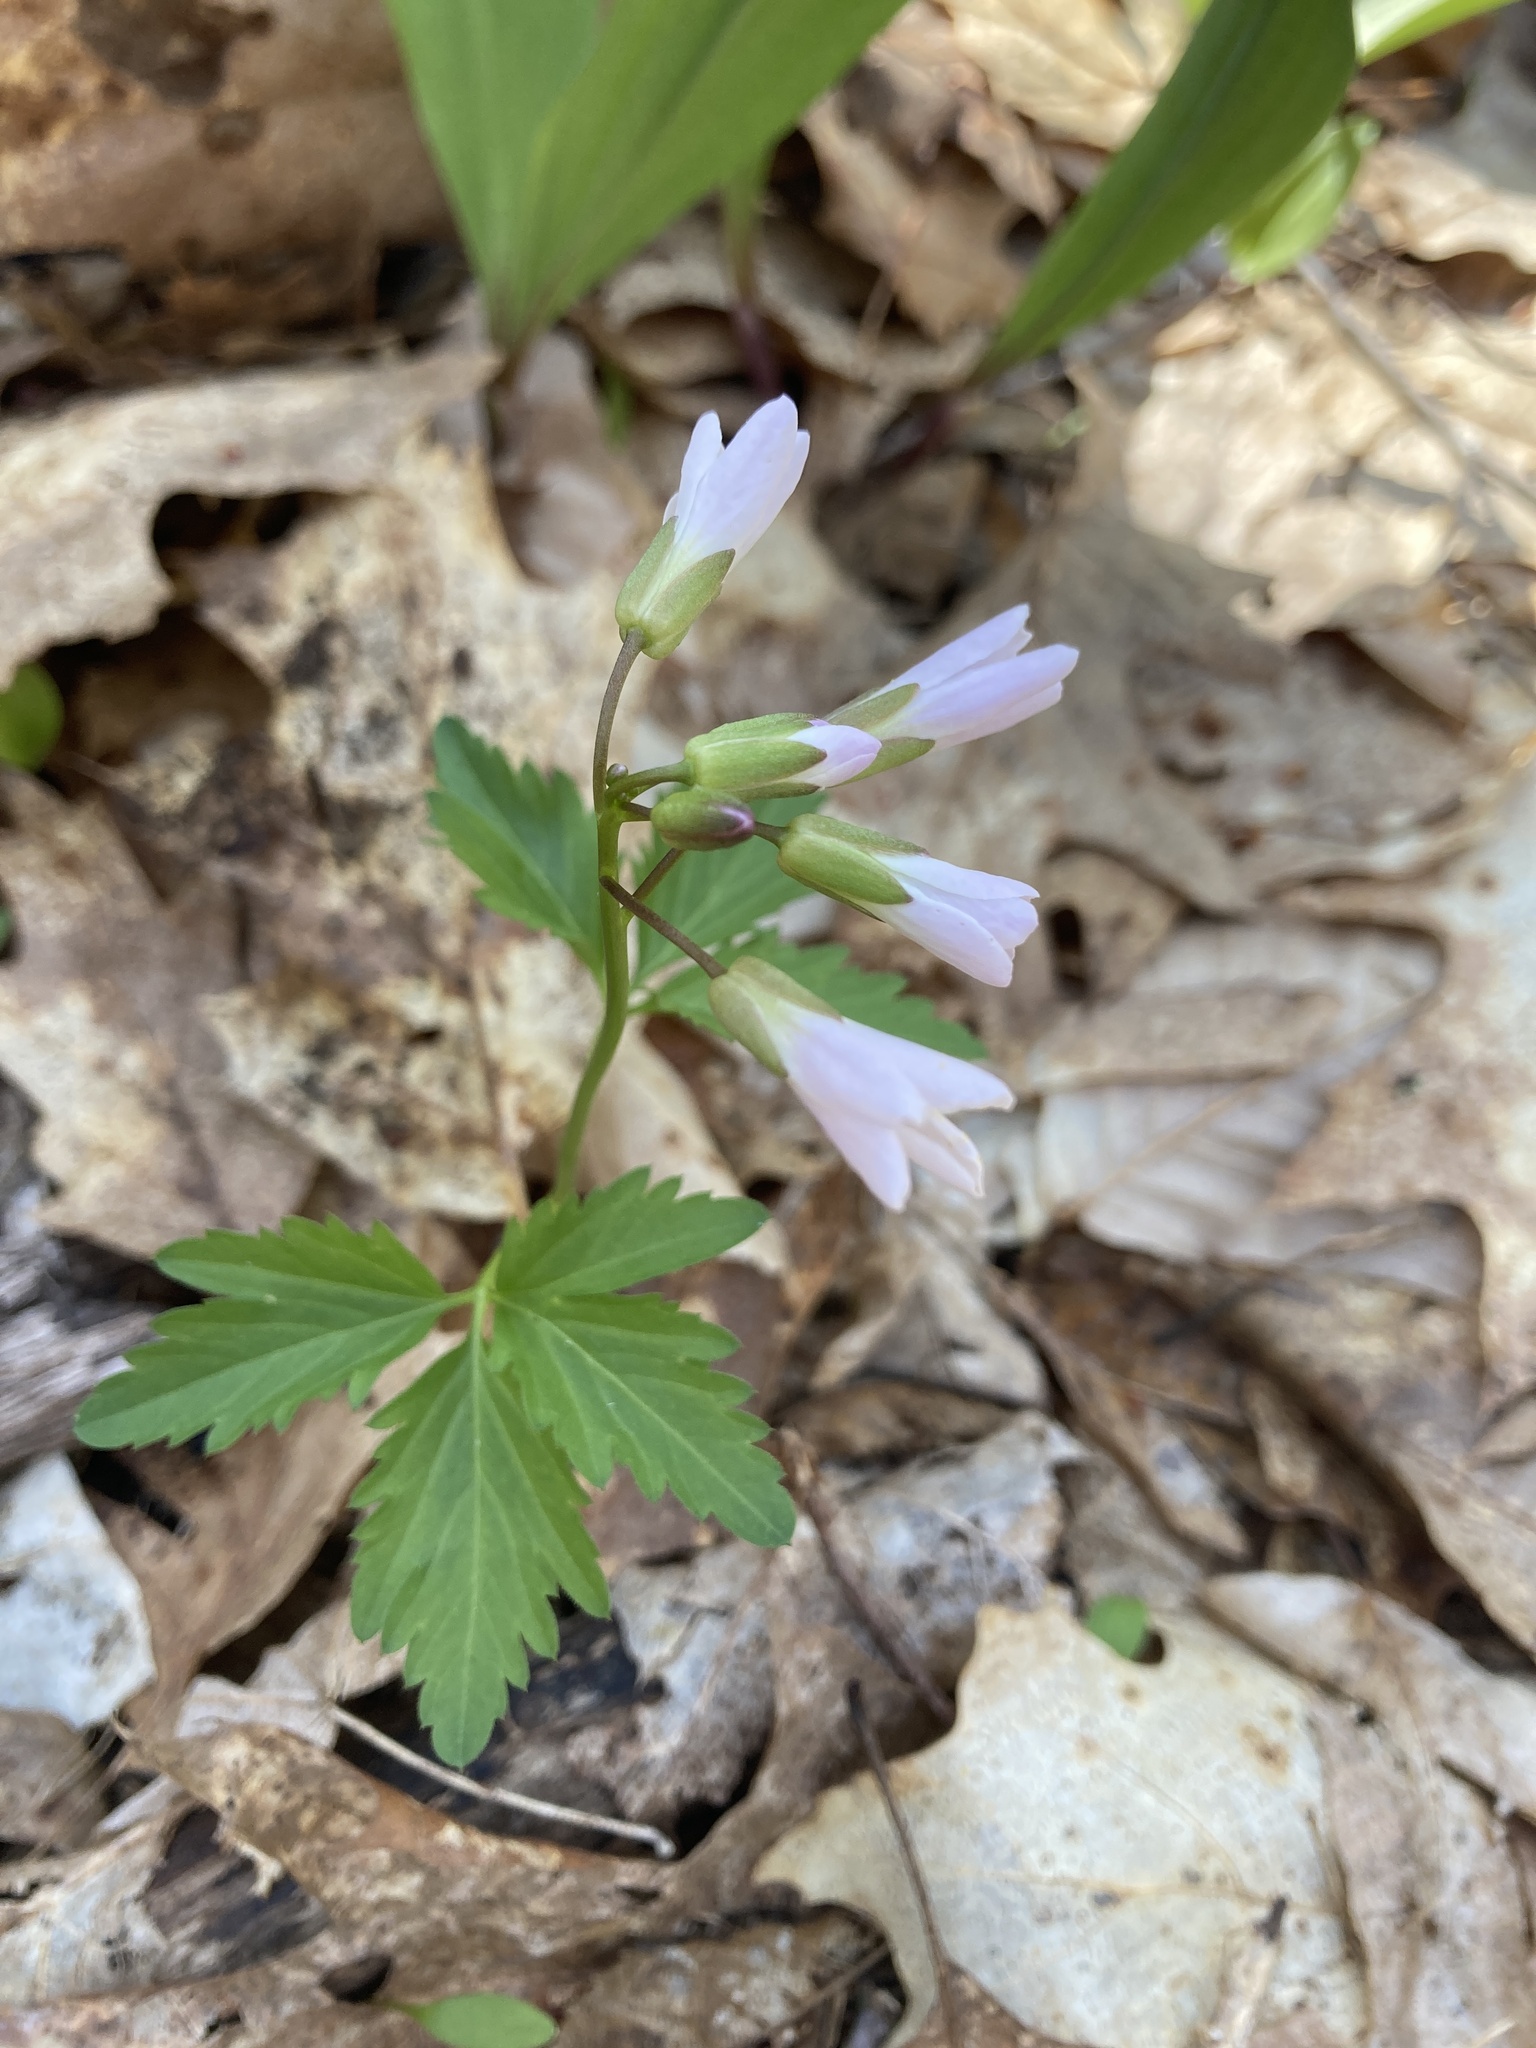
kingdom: Plantae
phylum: Tracheophyta
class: Magnoliopsida
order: Brassicales
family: Brassicaceae
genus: Cardamine
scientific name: Cardamine diphylla
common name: Broad-leaved toothwort
